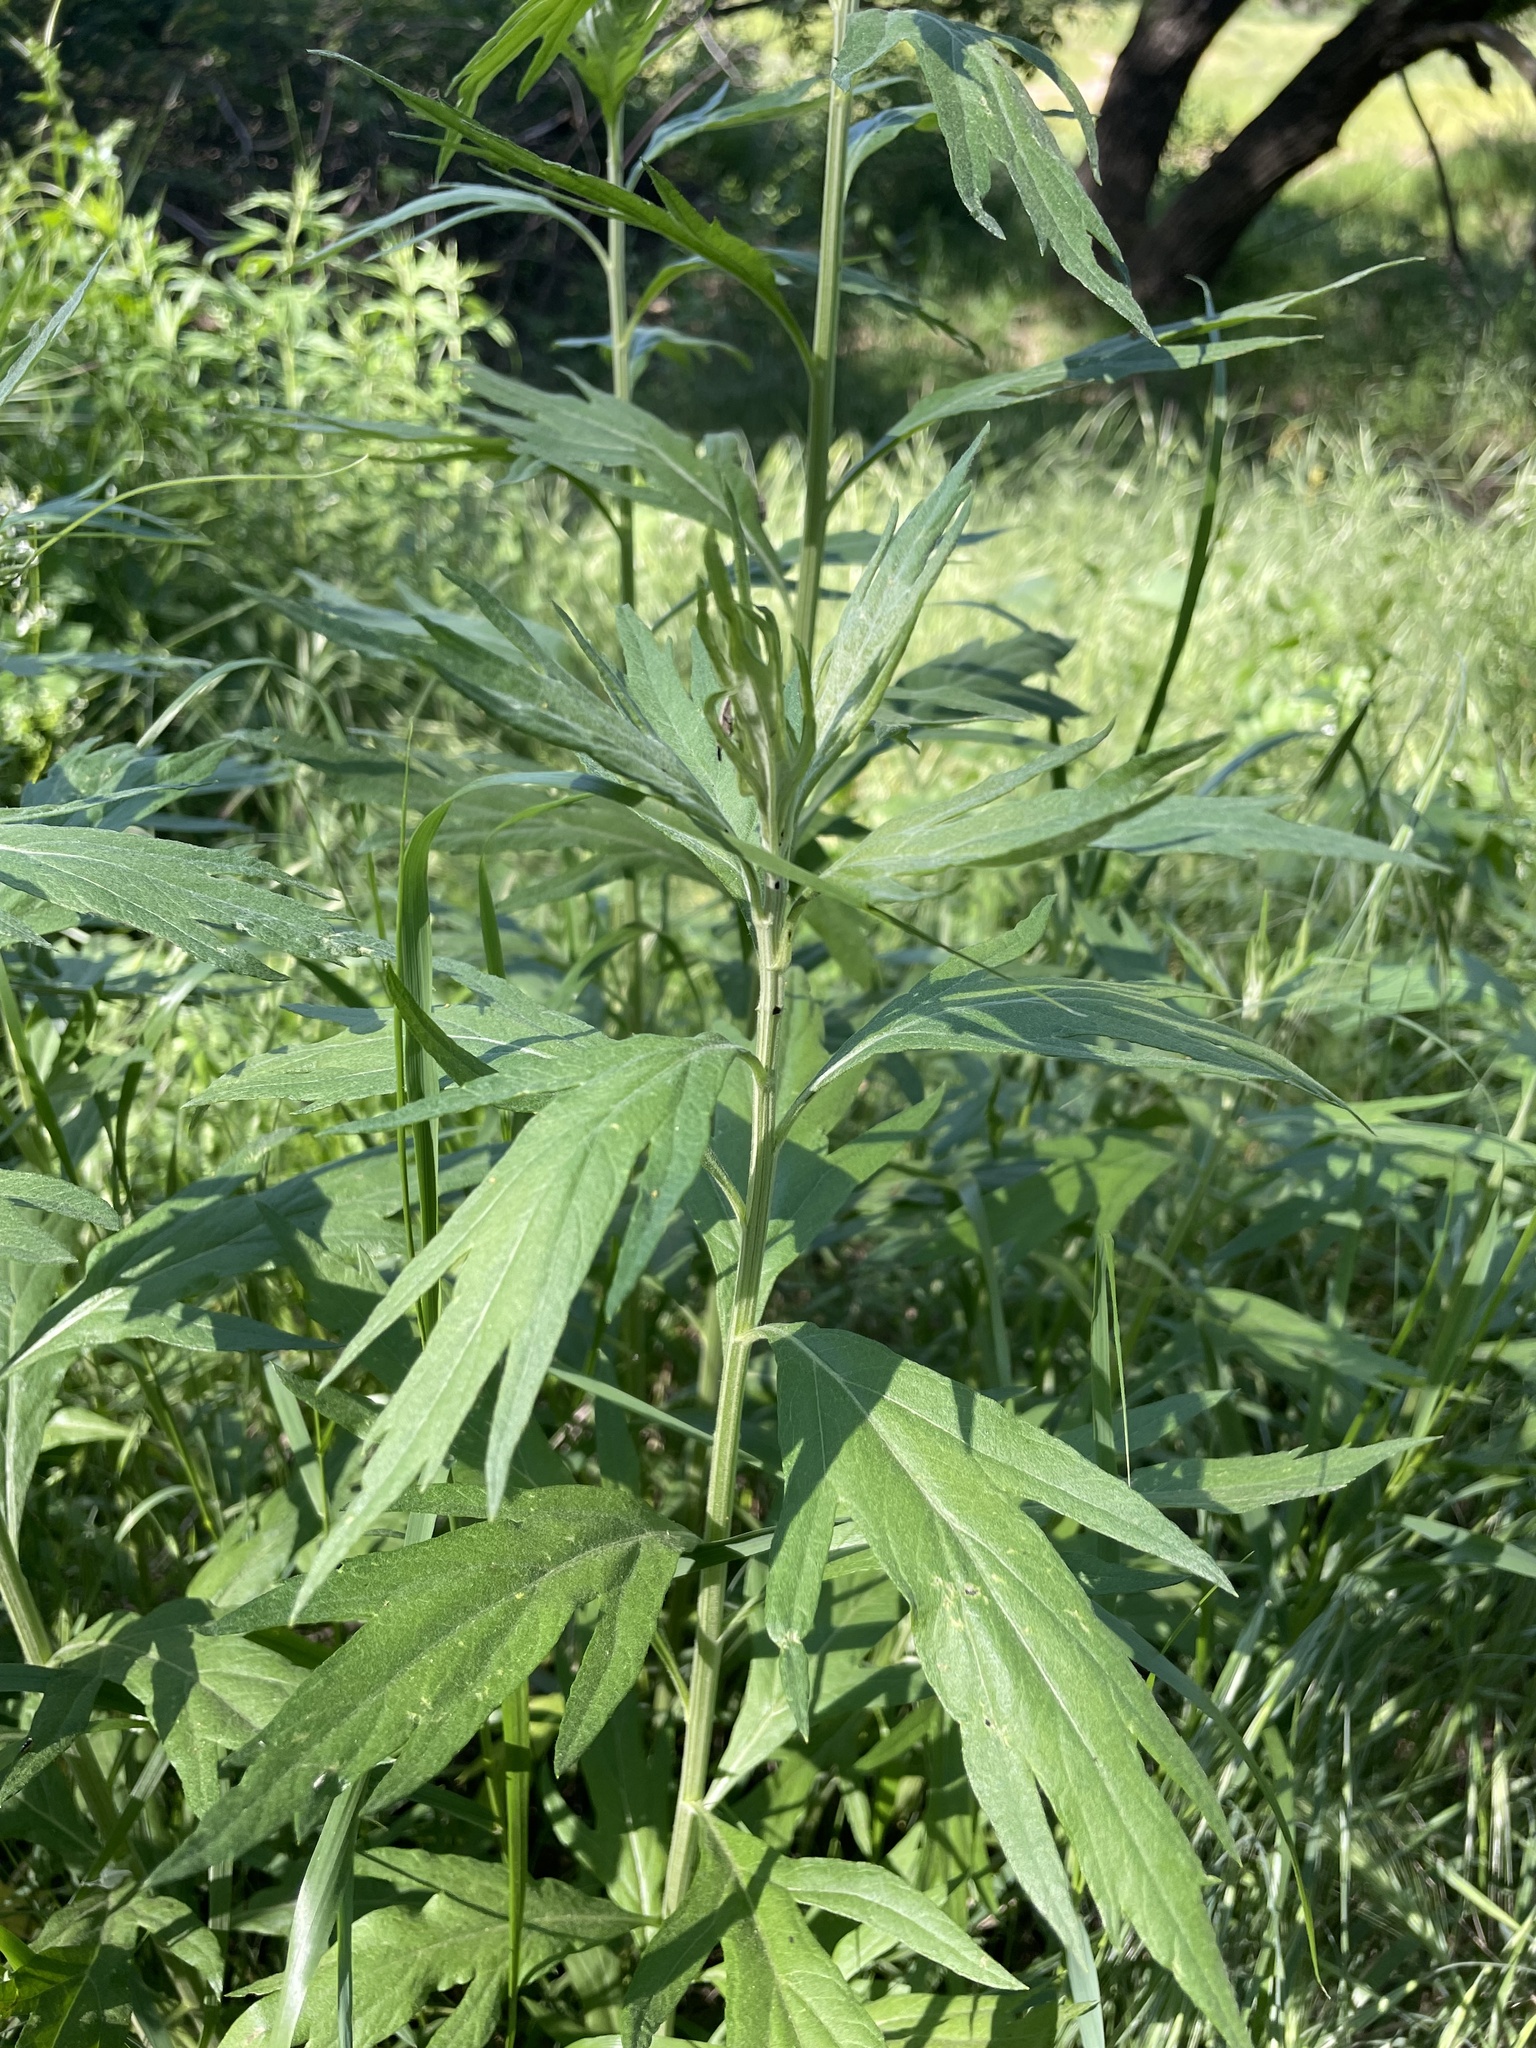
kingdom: Plantae
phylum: Tracheophyta
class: Magnoliopsida
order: Asterales
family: Asteraceae
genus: Artemisia
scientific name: Artemisia douglasiana
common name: Northwest mugwort
